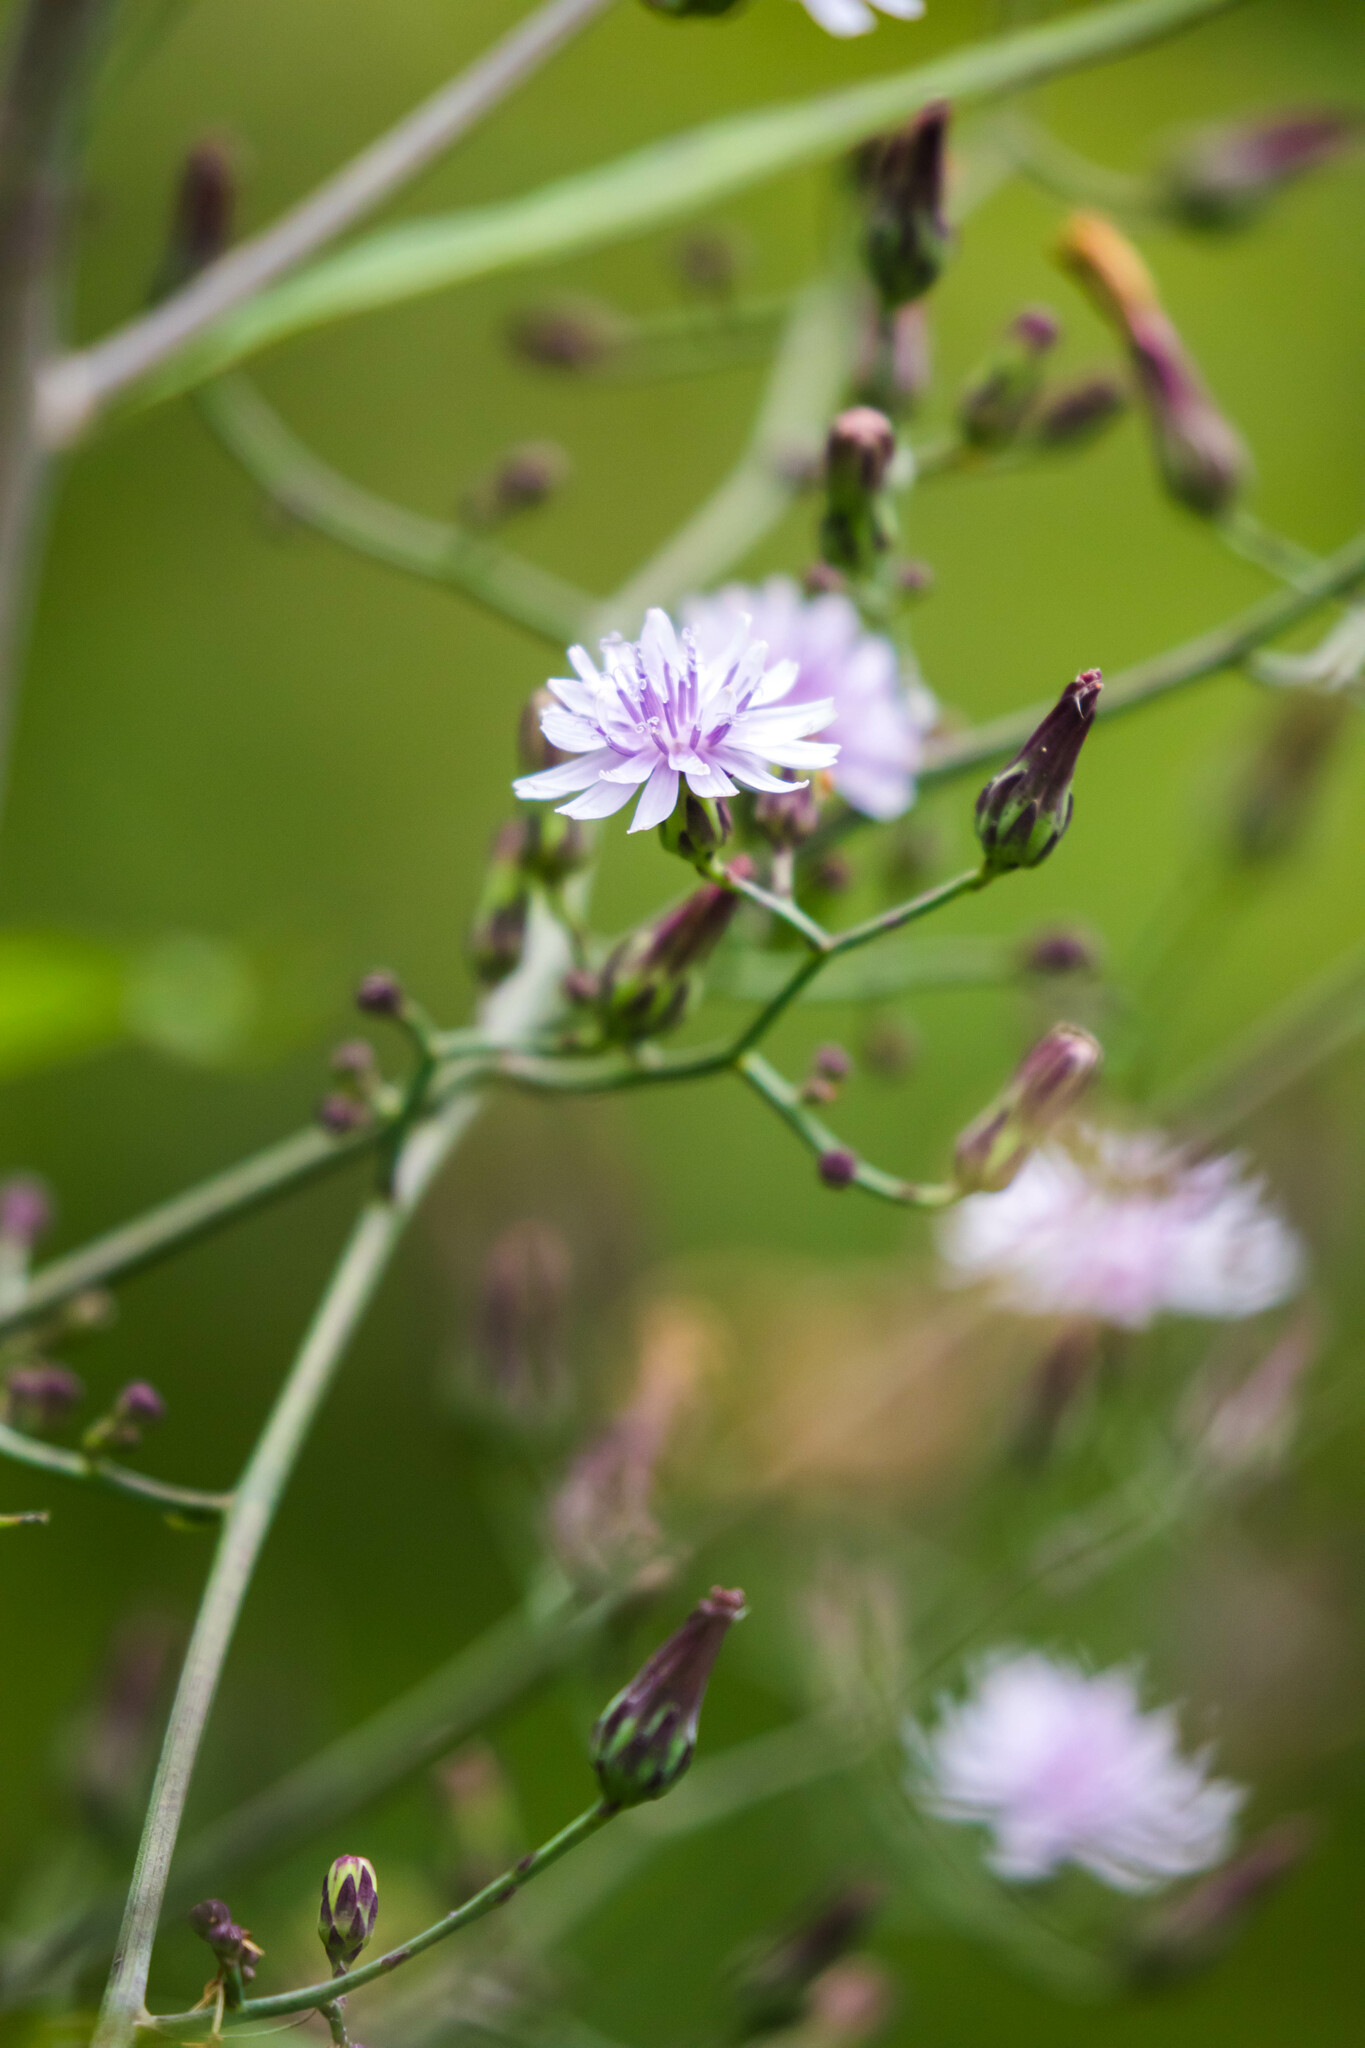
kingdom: Plantae
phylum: Tracheophyta
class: Magnoliopsida
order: Asterales
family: Asteraceae
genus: Lactuca
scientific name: Lactuca floridana
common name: Woodland lettuce
